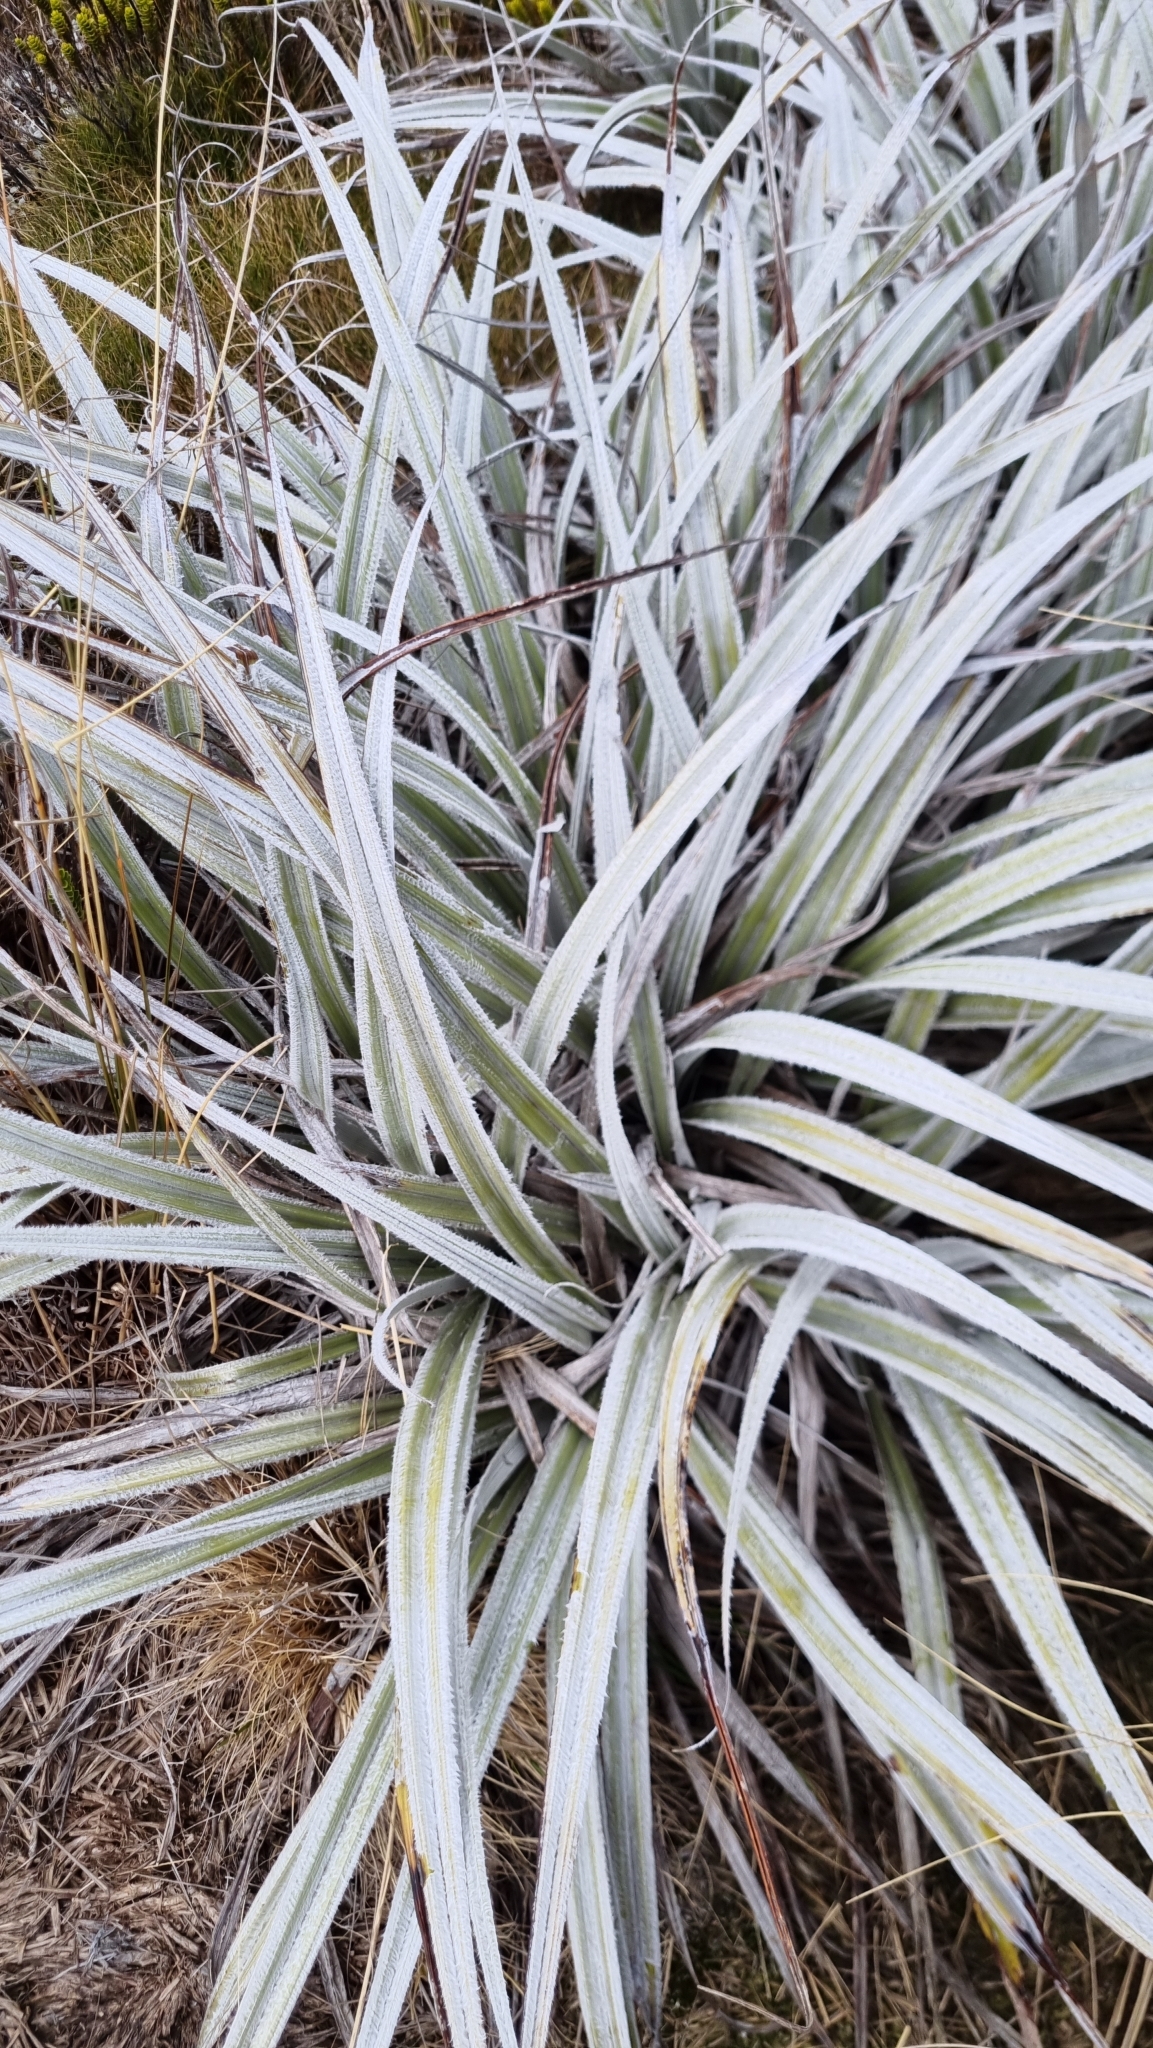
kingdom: Plantae
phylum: Tracheophyta
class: Liliopsida
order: Asparagales
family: Asteliaceae
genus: Astelia
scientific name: Astelia nervosa
